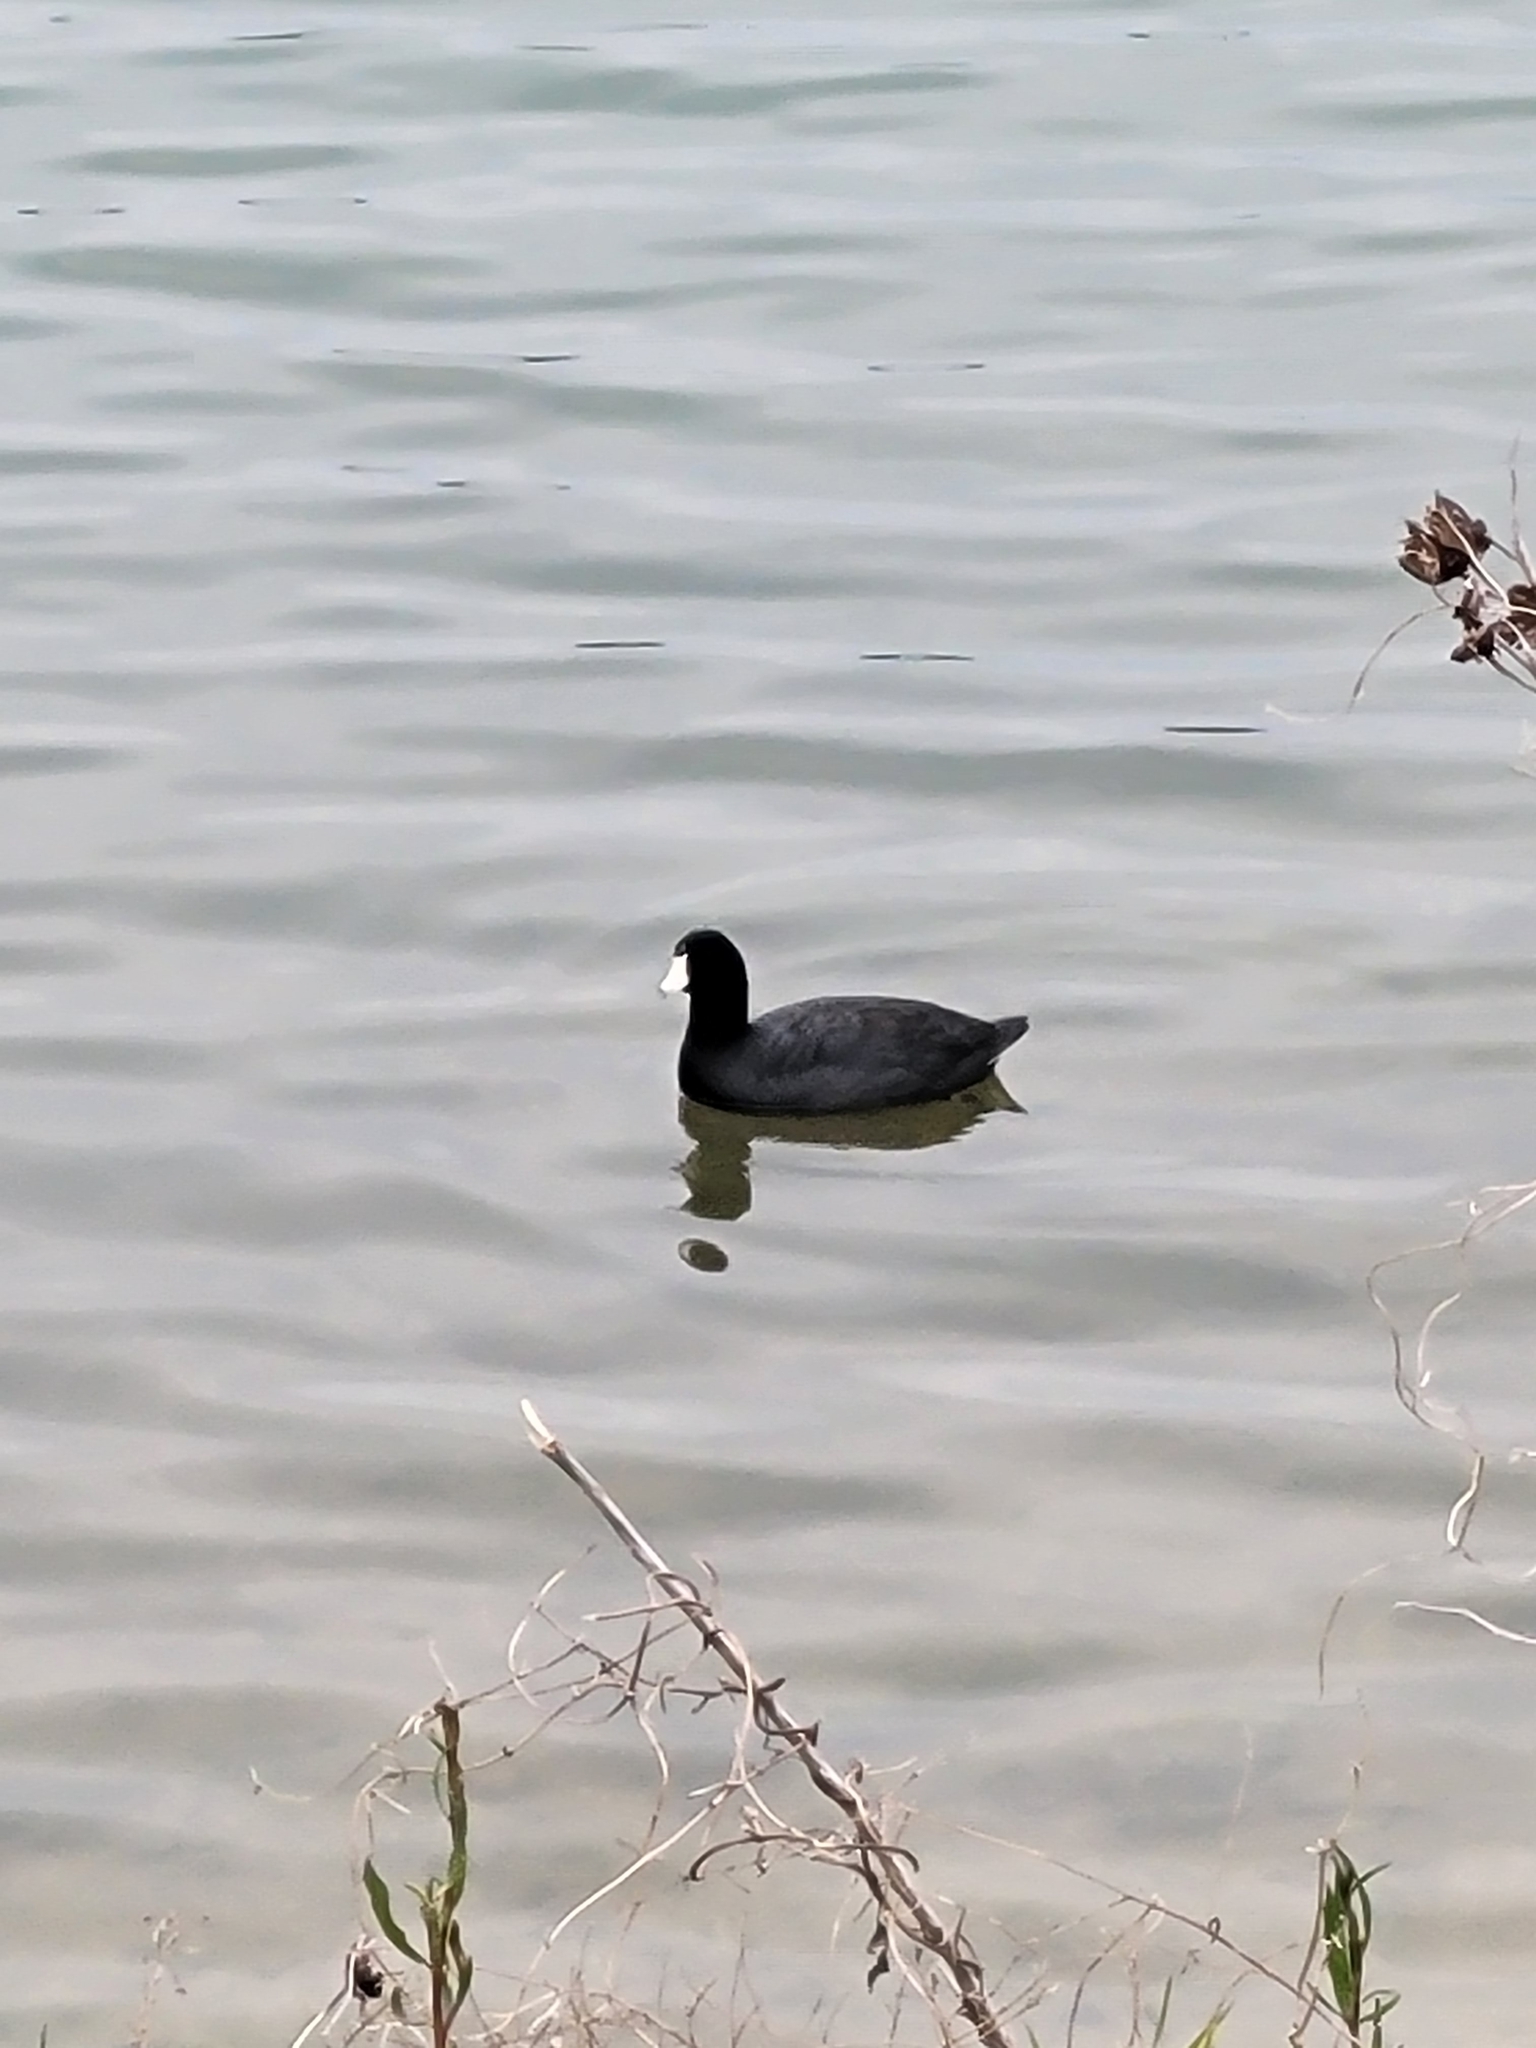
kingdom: Animalia
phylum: Chordata
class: Aves
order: Gruiformes
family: Rallidae
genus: Fulica
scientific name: Fulica americana
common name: American coot
